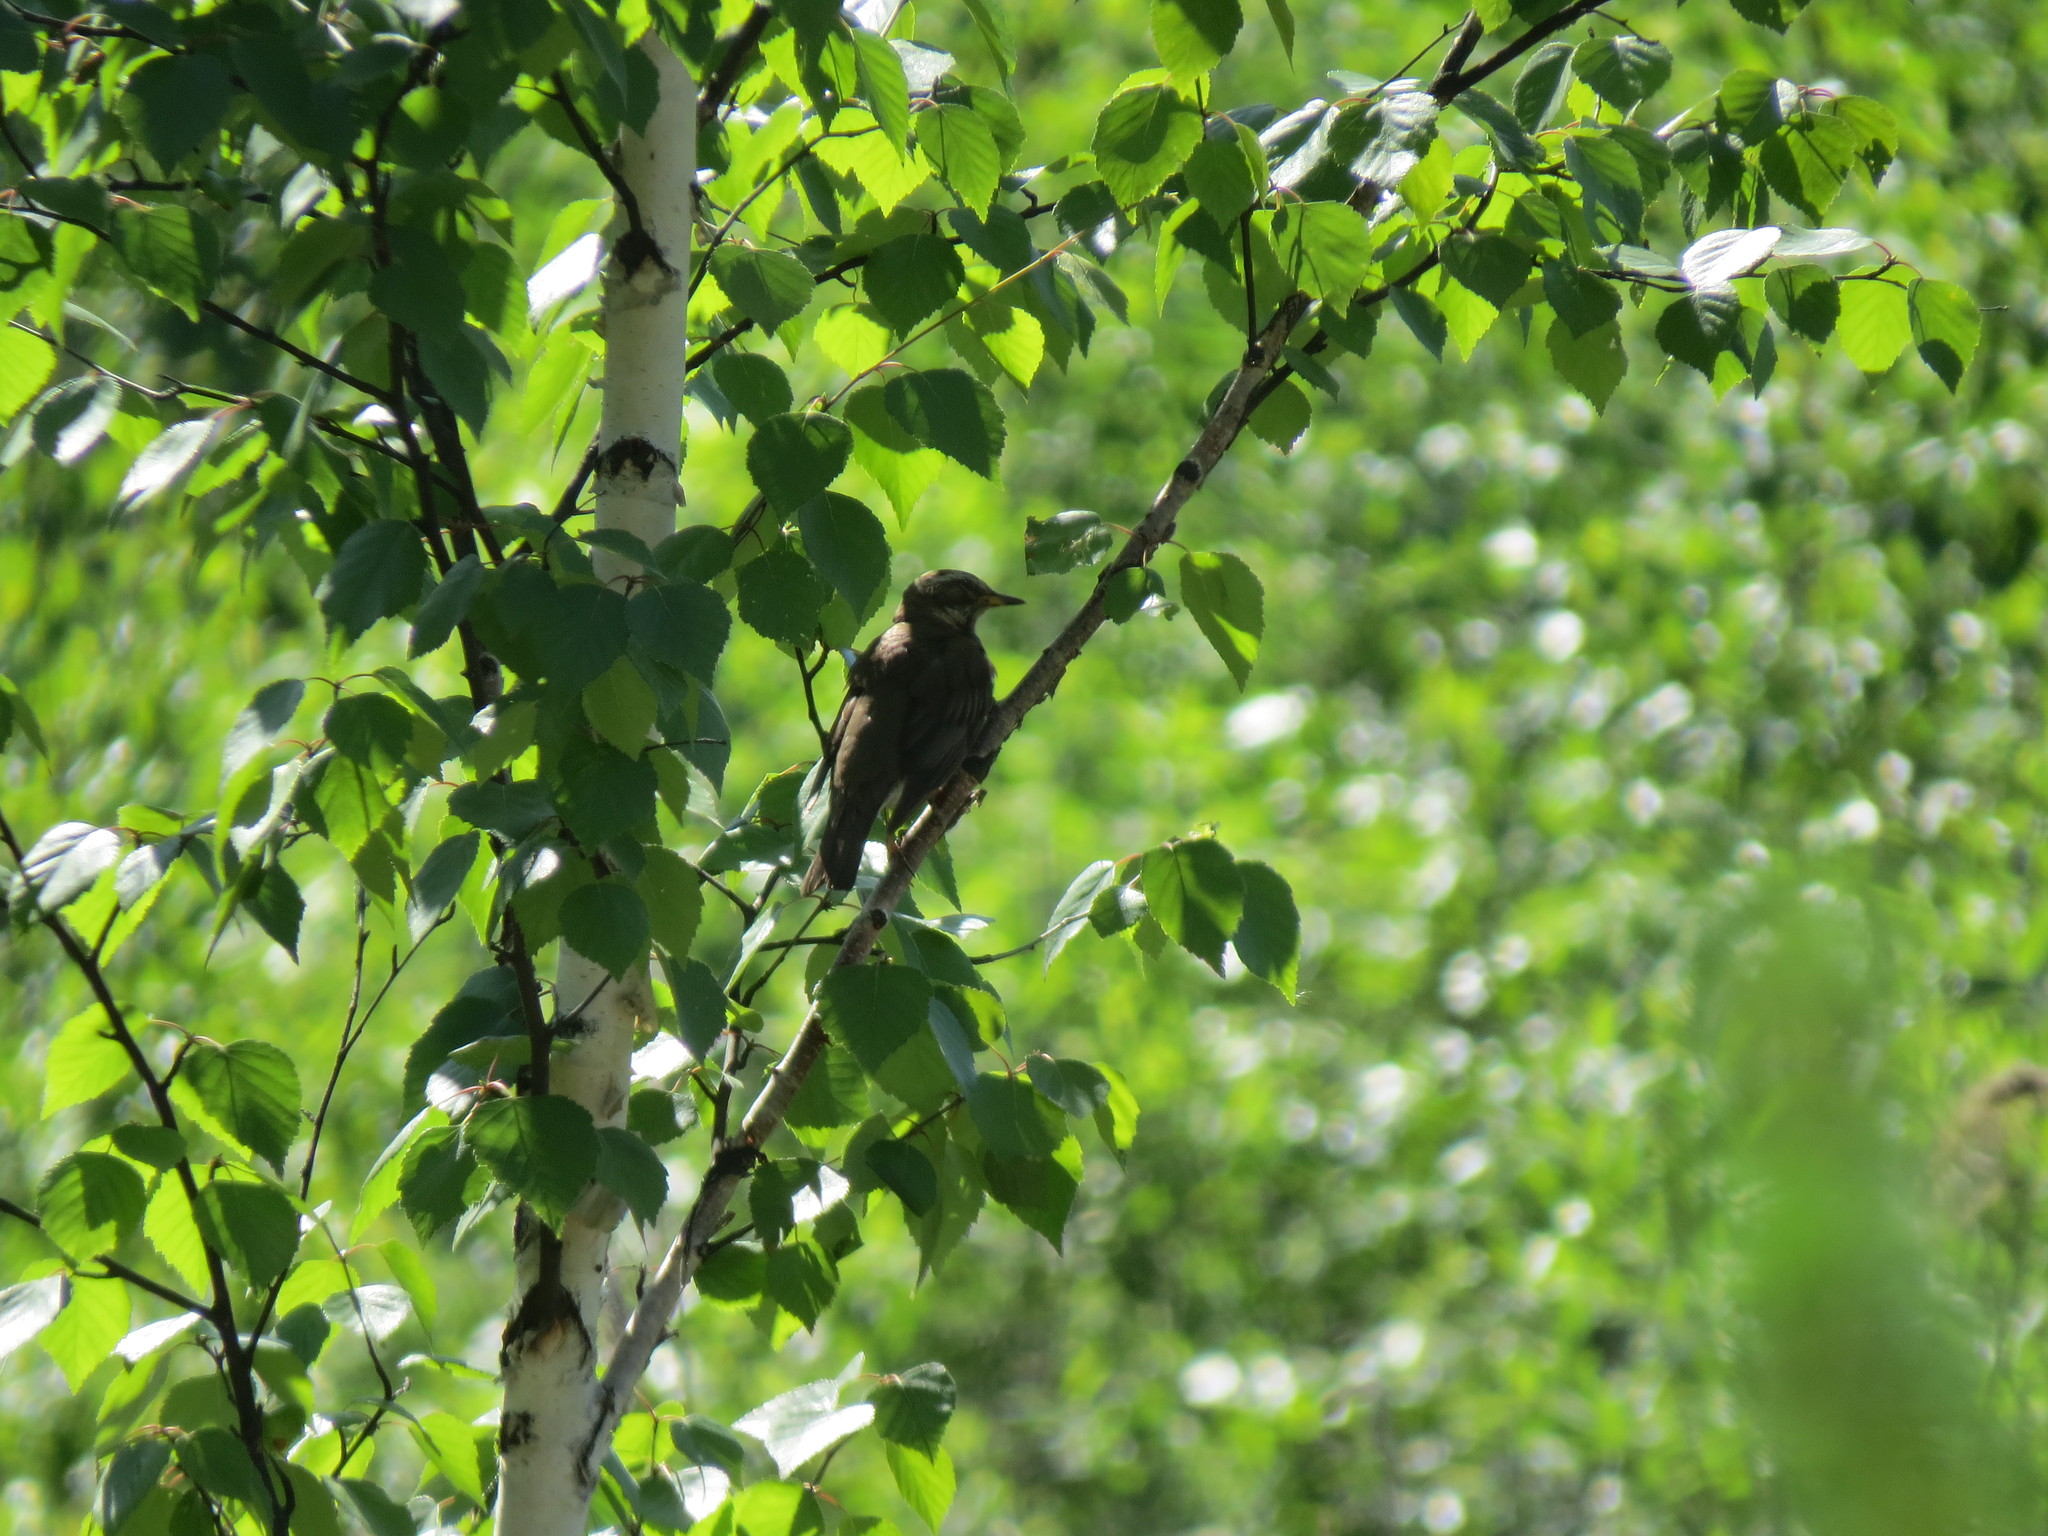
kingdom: Animalia
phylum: Chordata
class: Aves
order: Passeriformes
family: Turdidae
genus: Turdus
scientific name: Turdus iliacus
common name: Redwing
